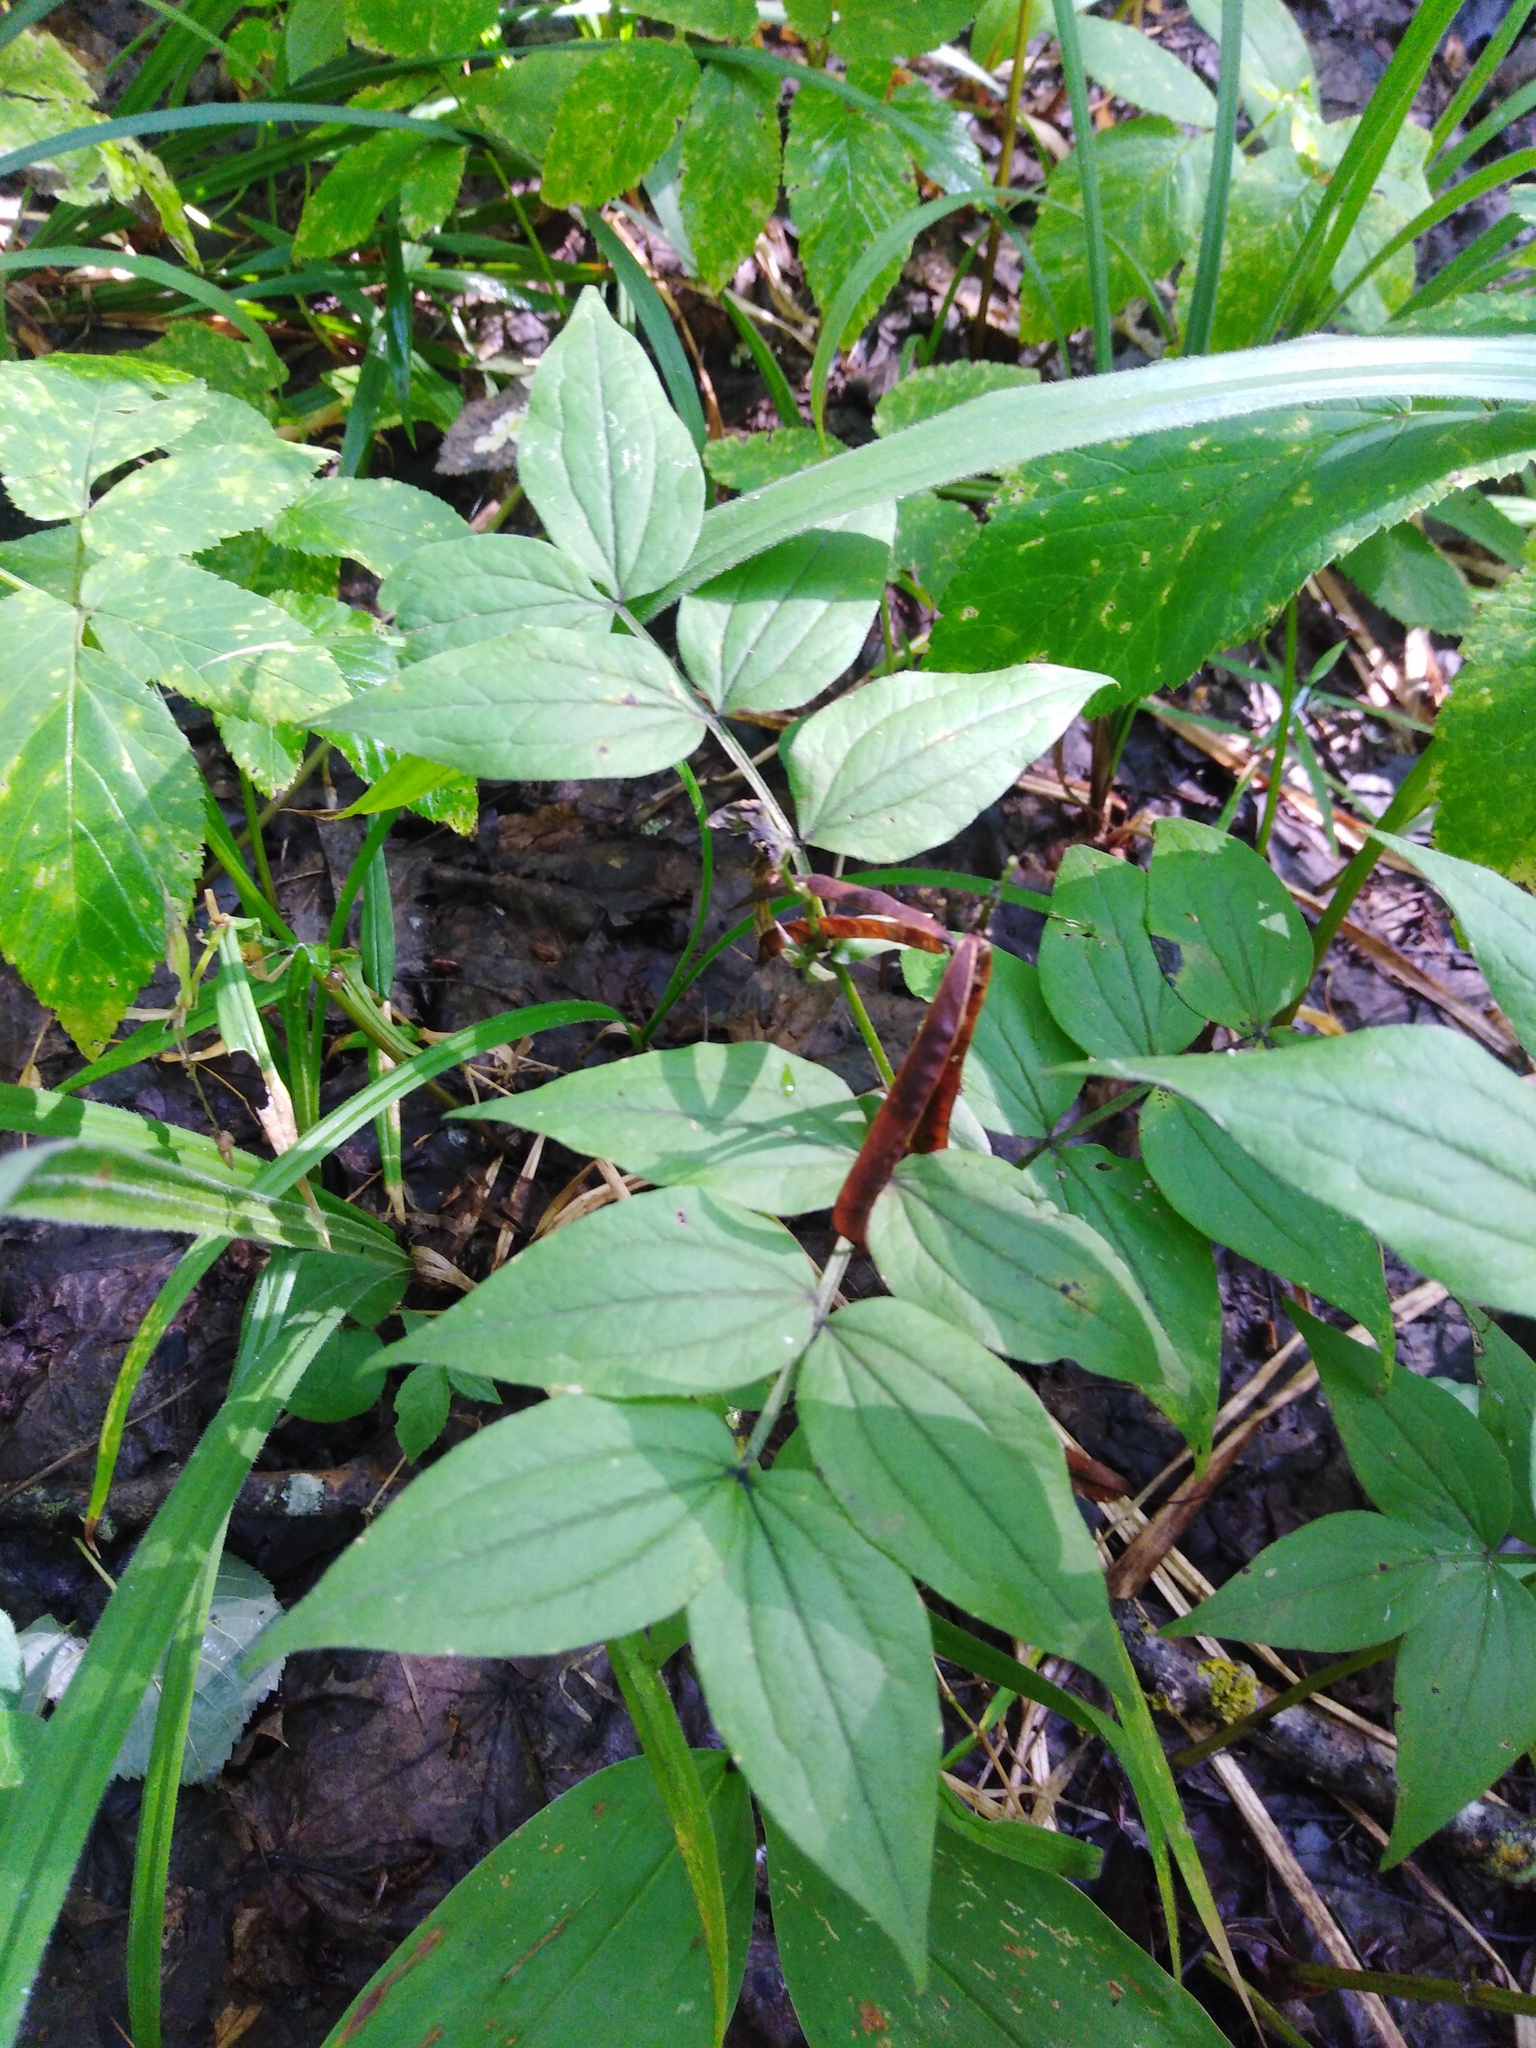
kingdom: Plantae
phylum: Tracheophyta
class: Magnoliopsida
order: Fabales
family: Fabaceae
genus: Lathyrus
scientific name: Lathyrus vernus
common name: Spring pea
